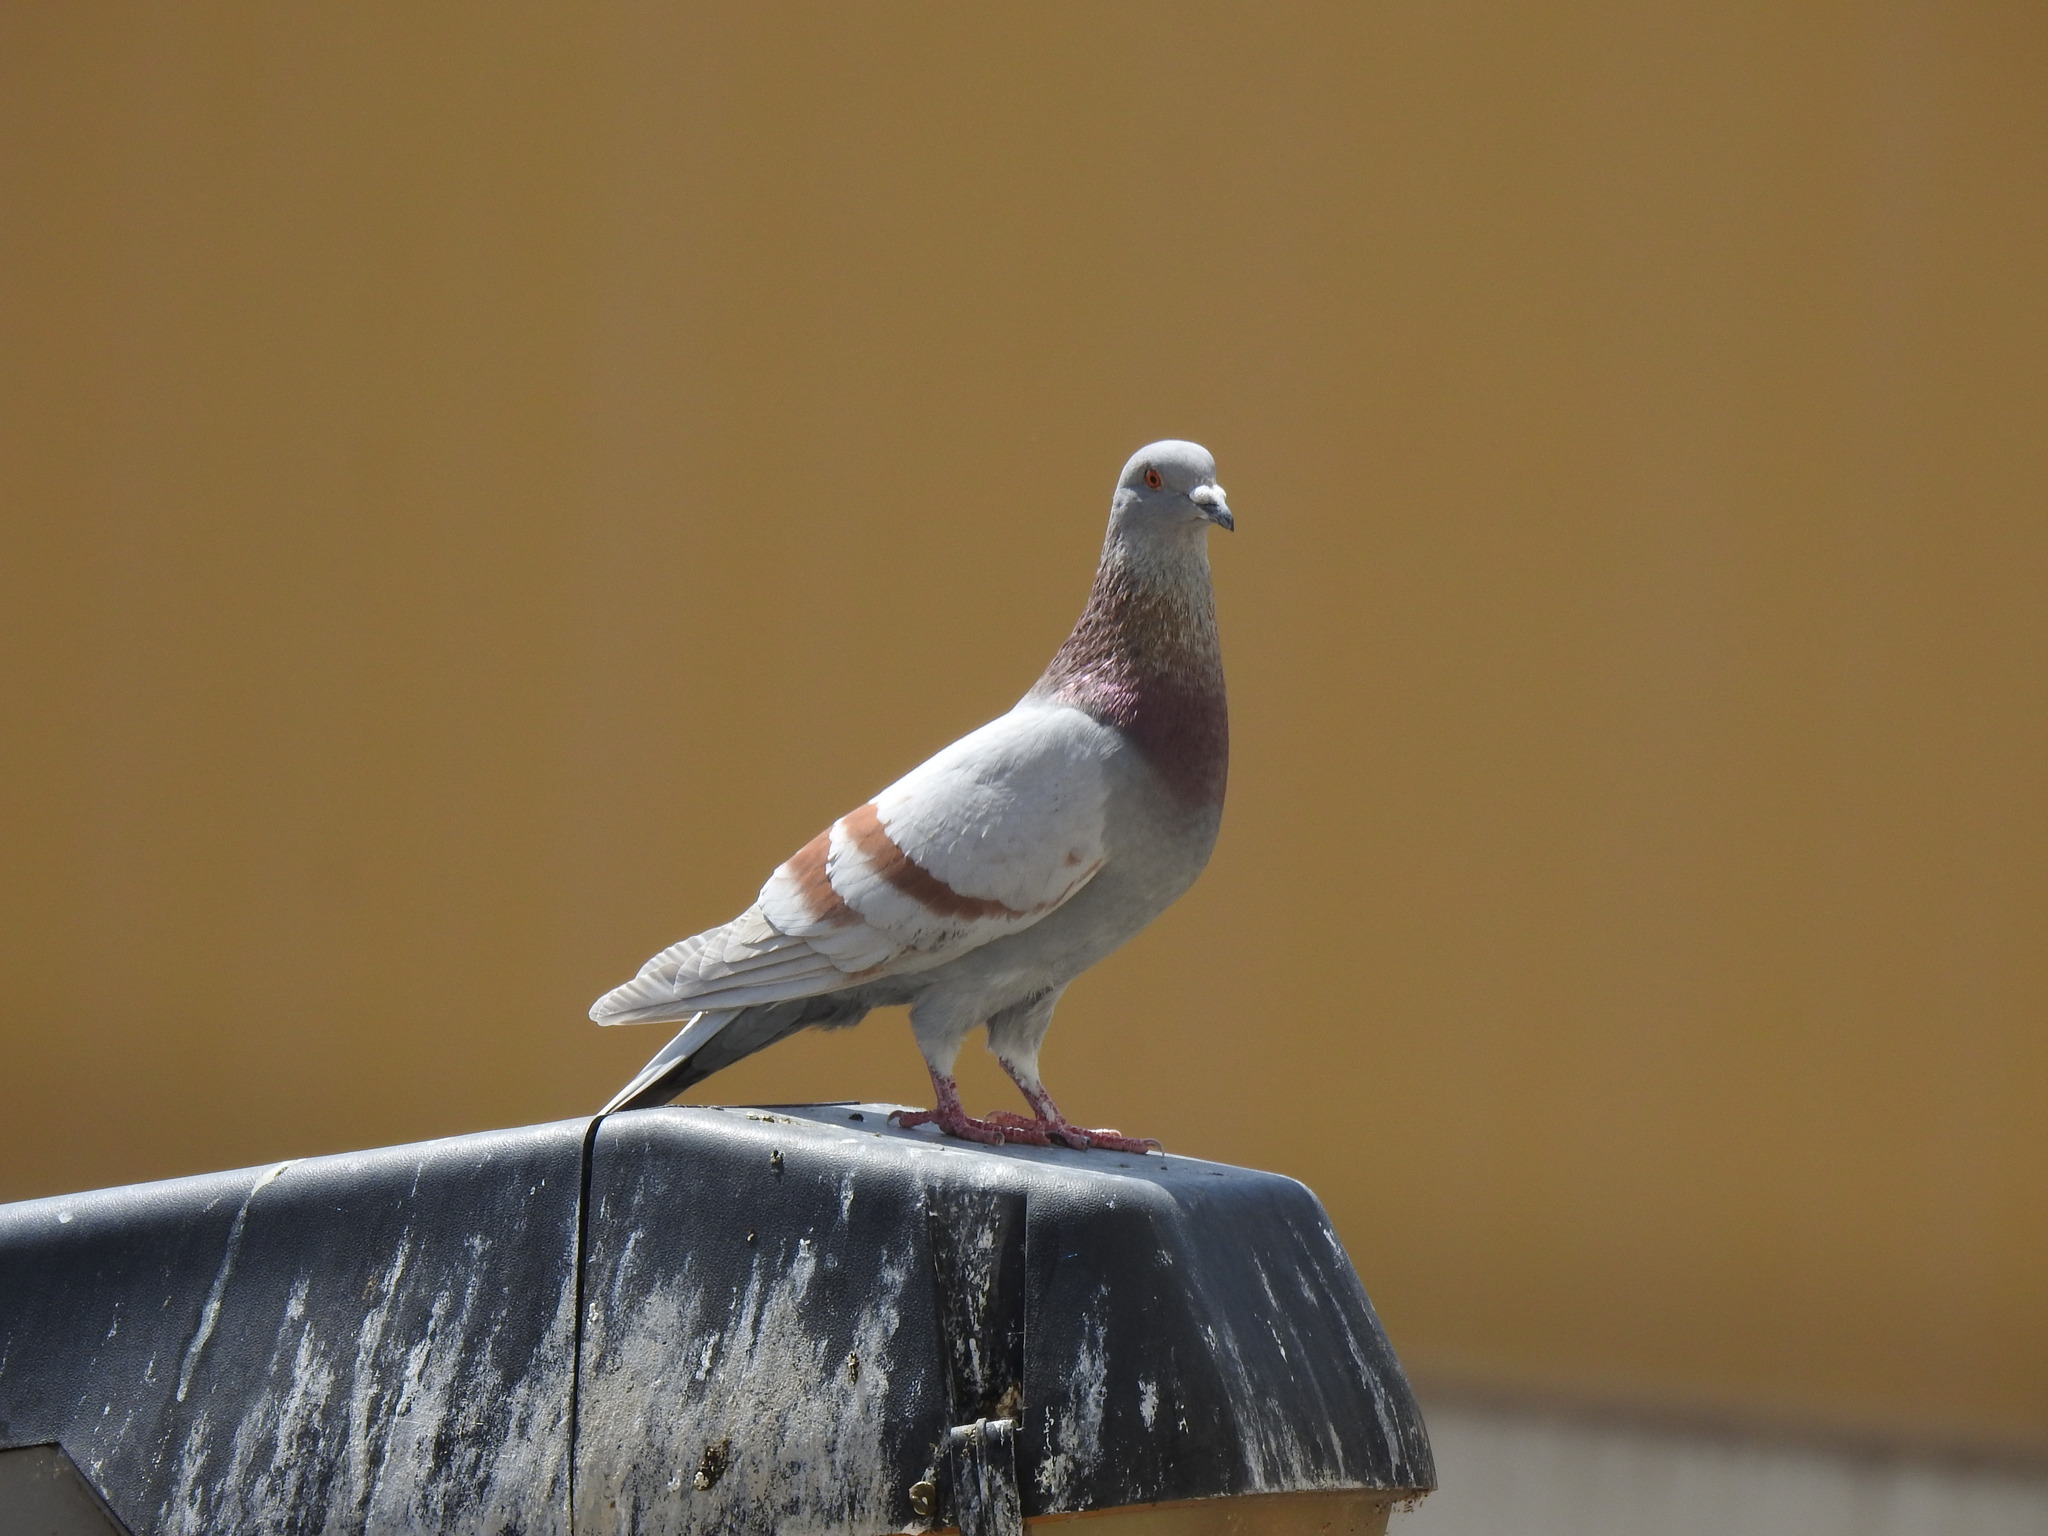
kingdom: Animalia
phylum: Chordata
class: Aves
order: Columbiformes
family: Columbidae
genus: Columba
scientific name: Columba livia
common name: Rock pigeon
